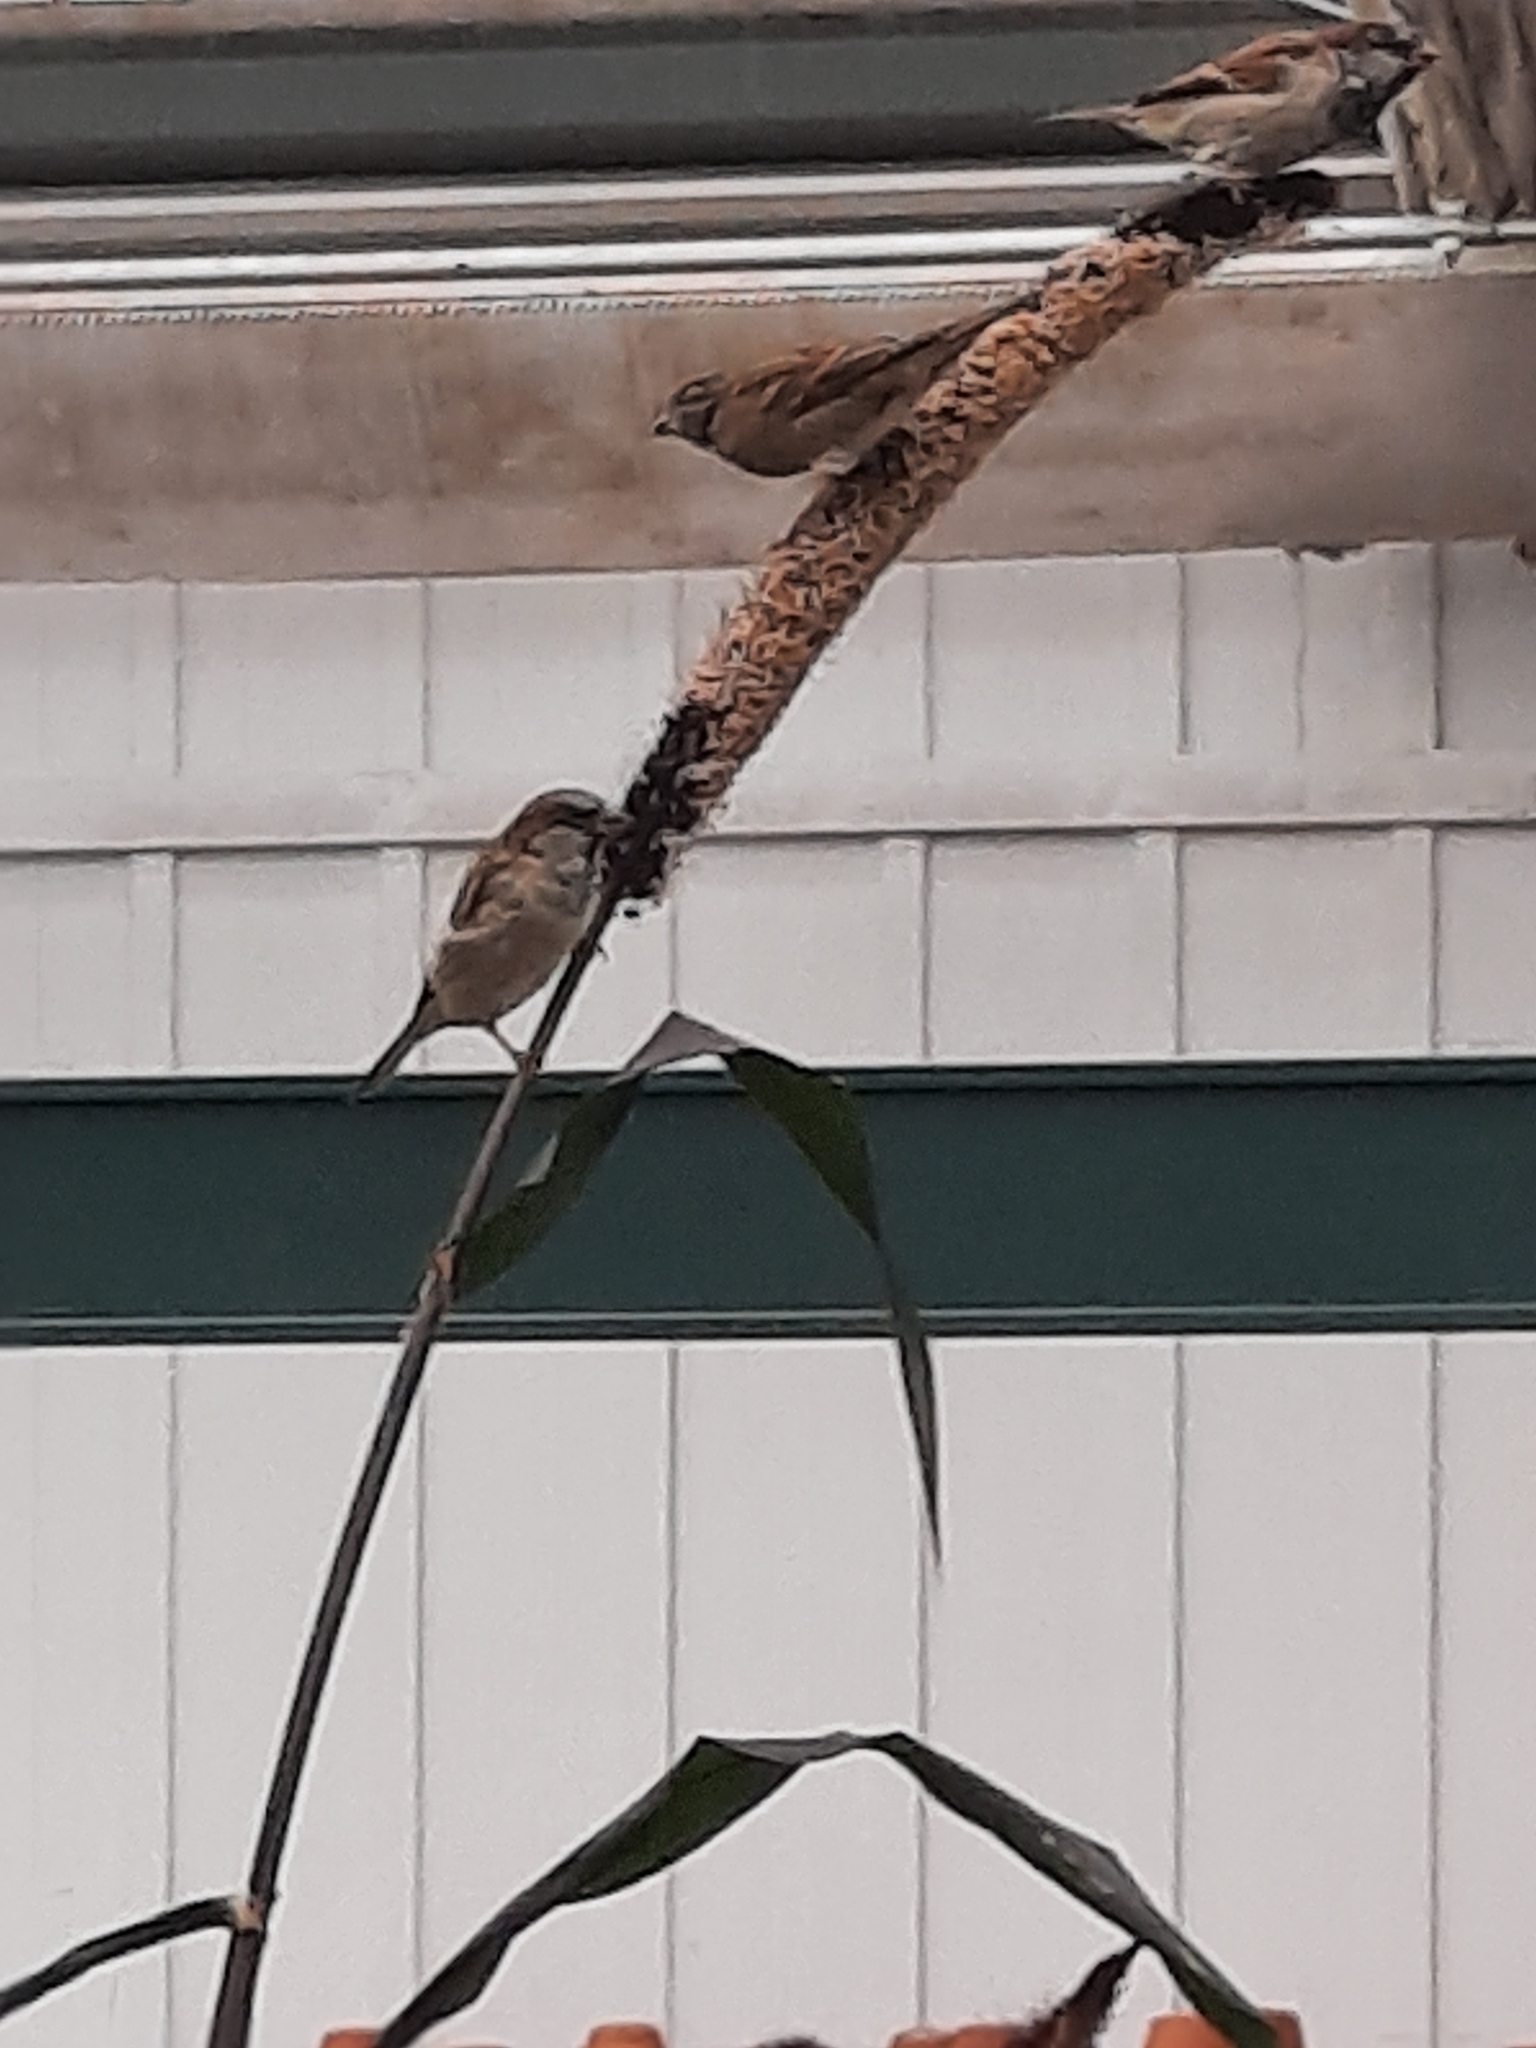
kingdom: Animalia
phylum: Chordata
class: Aves
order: Passeriformes
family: Passeridae
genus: Passer
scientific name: Passer domesticus
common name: House sparrow
